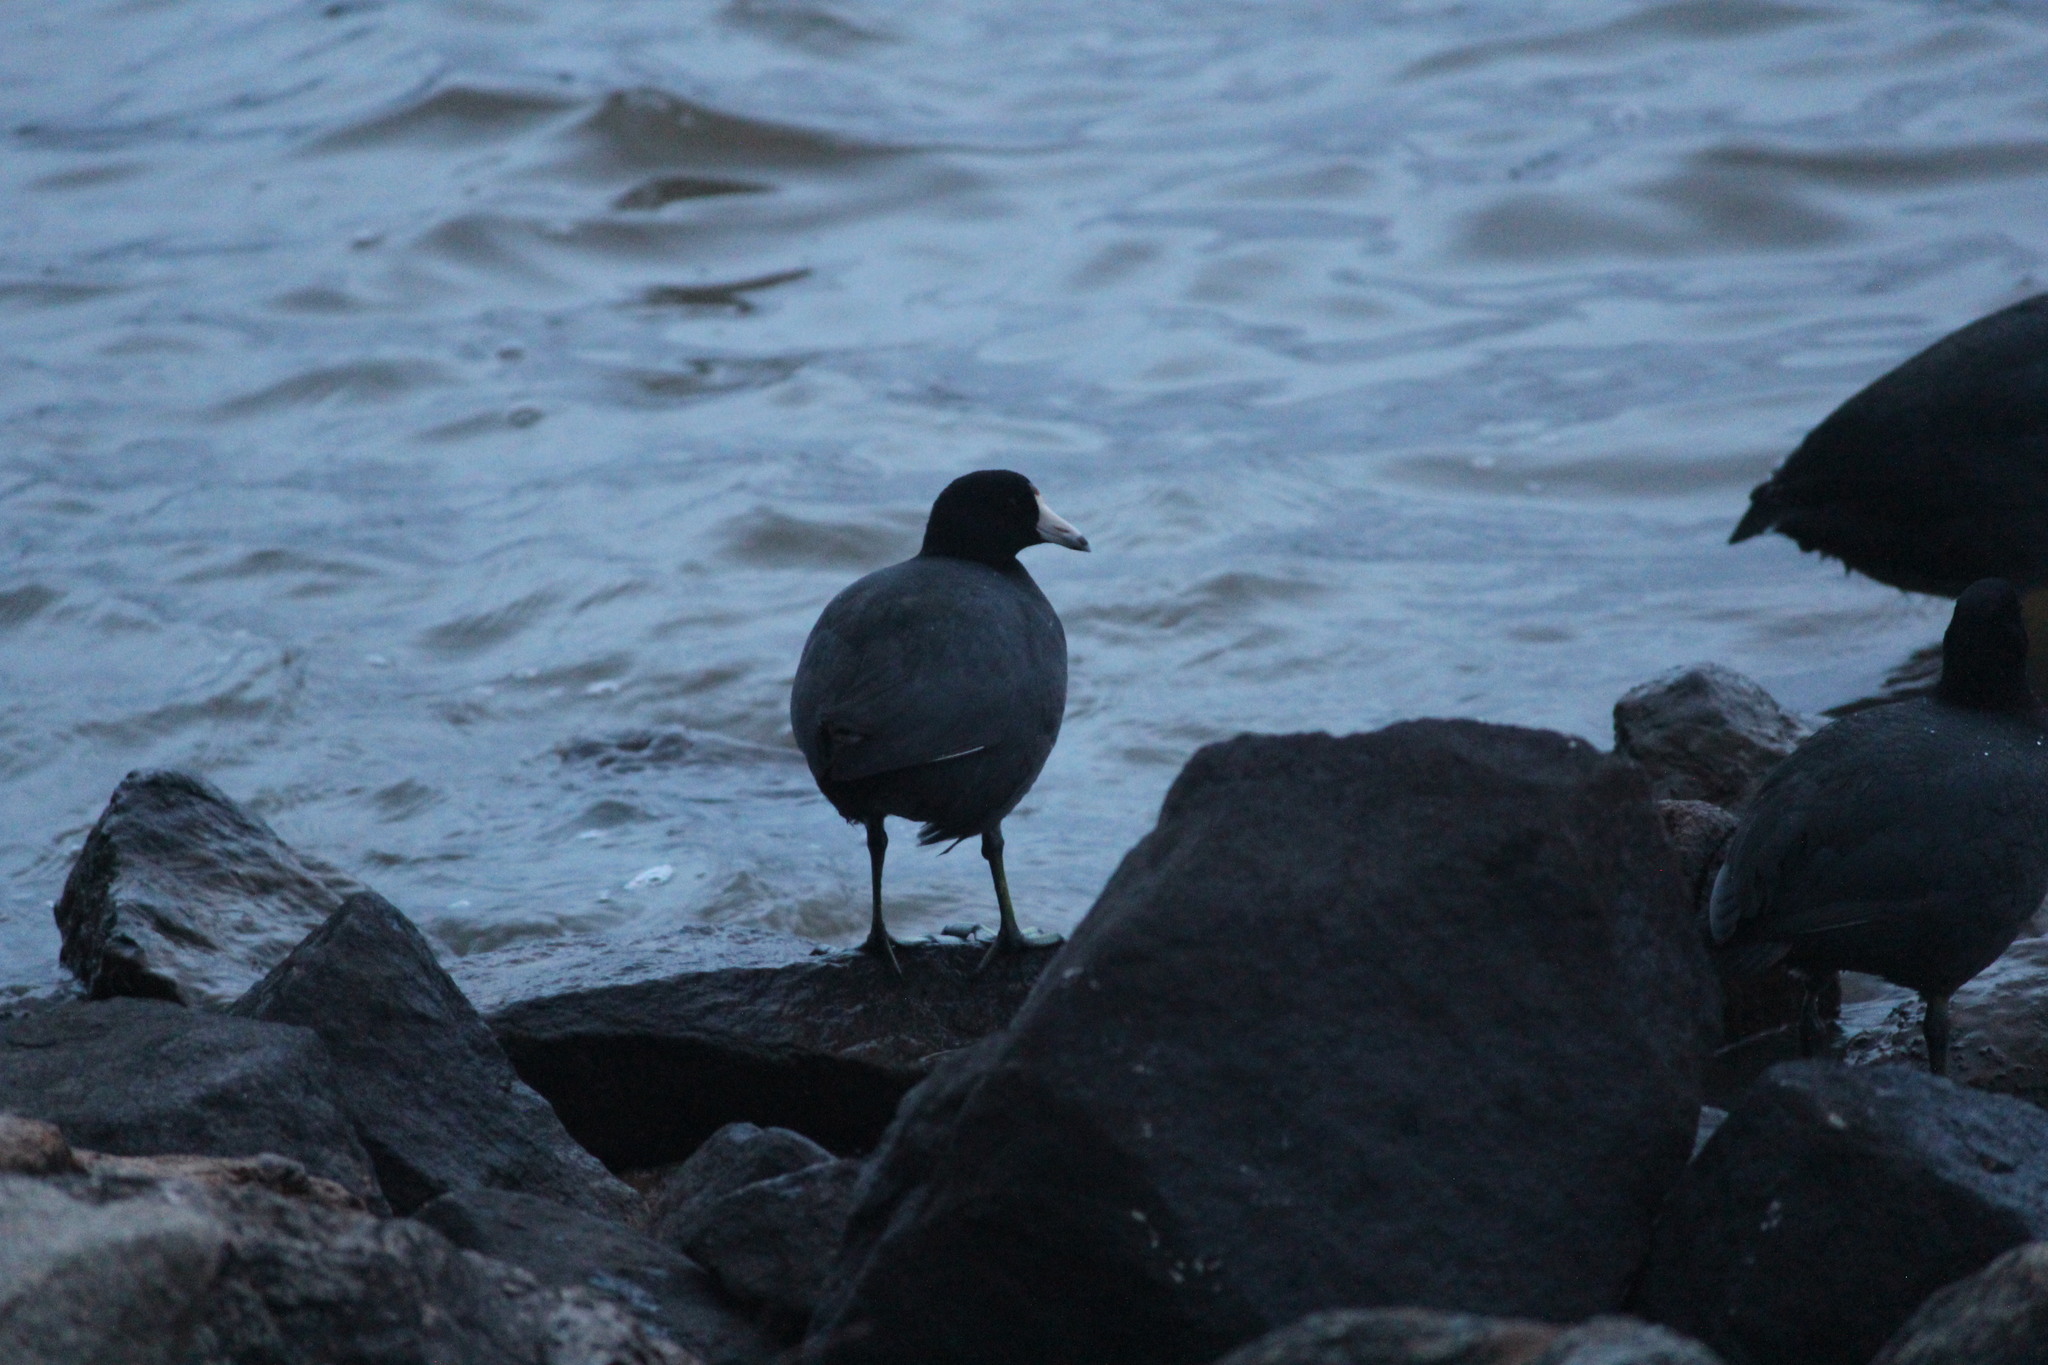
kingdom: Animalia
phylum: Chordata
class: Aves
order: Gruiformes
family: Rallidae
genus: Fulica
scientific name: Fulica americana
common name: American coot
